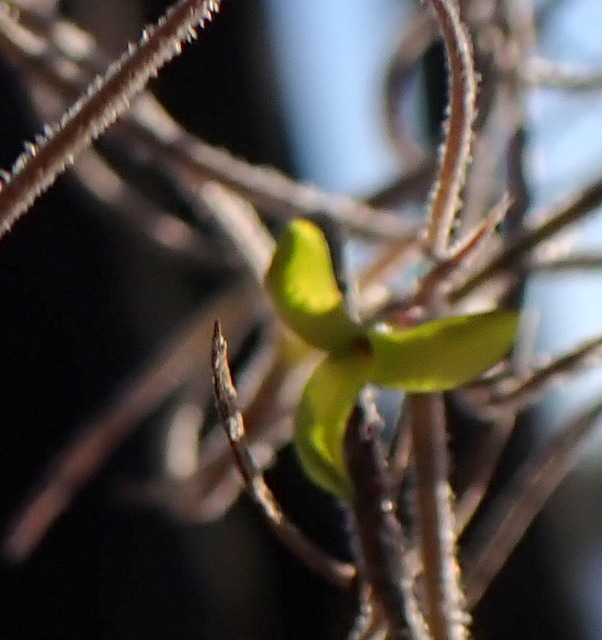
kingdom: Plantae
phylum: Tracheophyta
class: Liliopsida
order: Poales
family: Bromeliaceae
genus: Tillandsia
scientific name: Tillandsia usneoides
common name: Spanish moss
